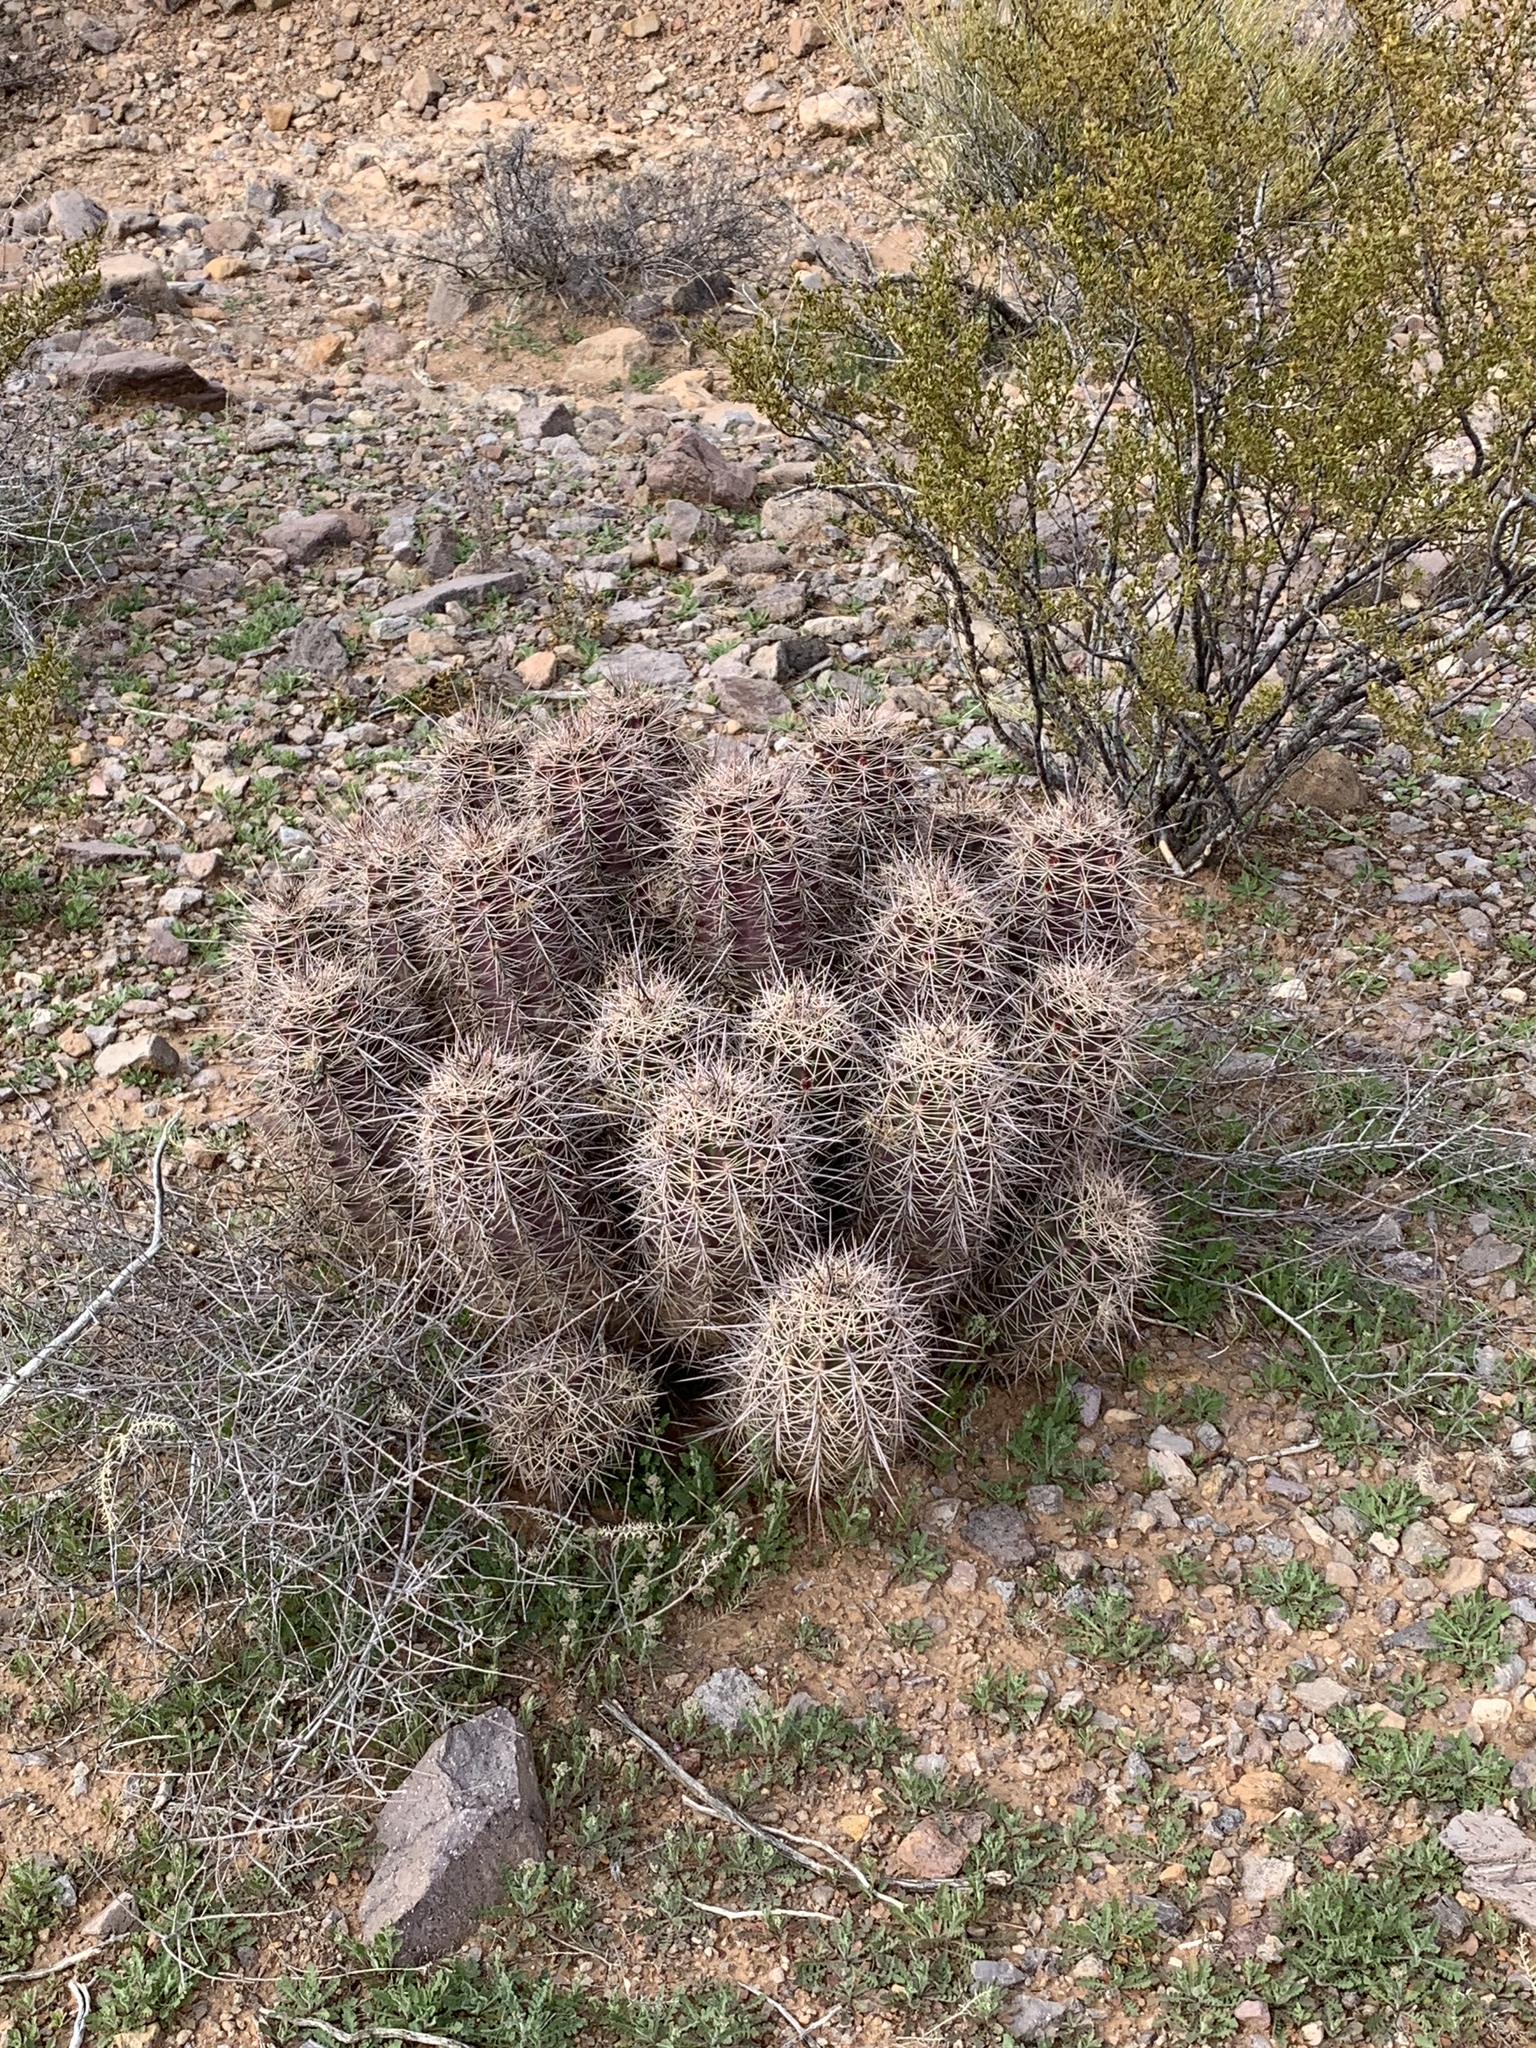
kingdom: Plantae
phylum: Tracheophyta
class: Magnoliopsida
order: Caryophyllales
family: Cactaceae
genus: Echinocereus
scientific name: Echinocereus coccineus
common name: Scarlet hedgehog cactus
